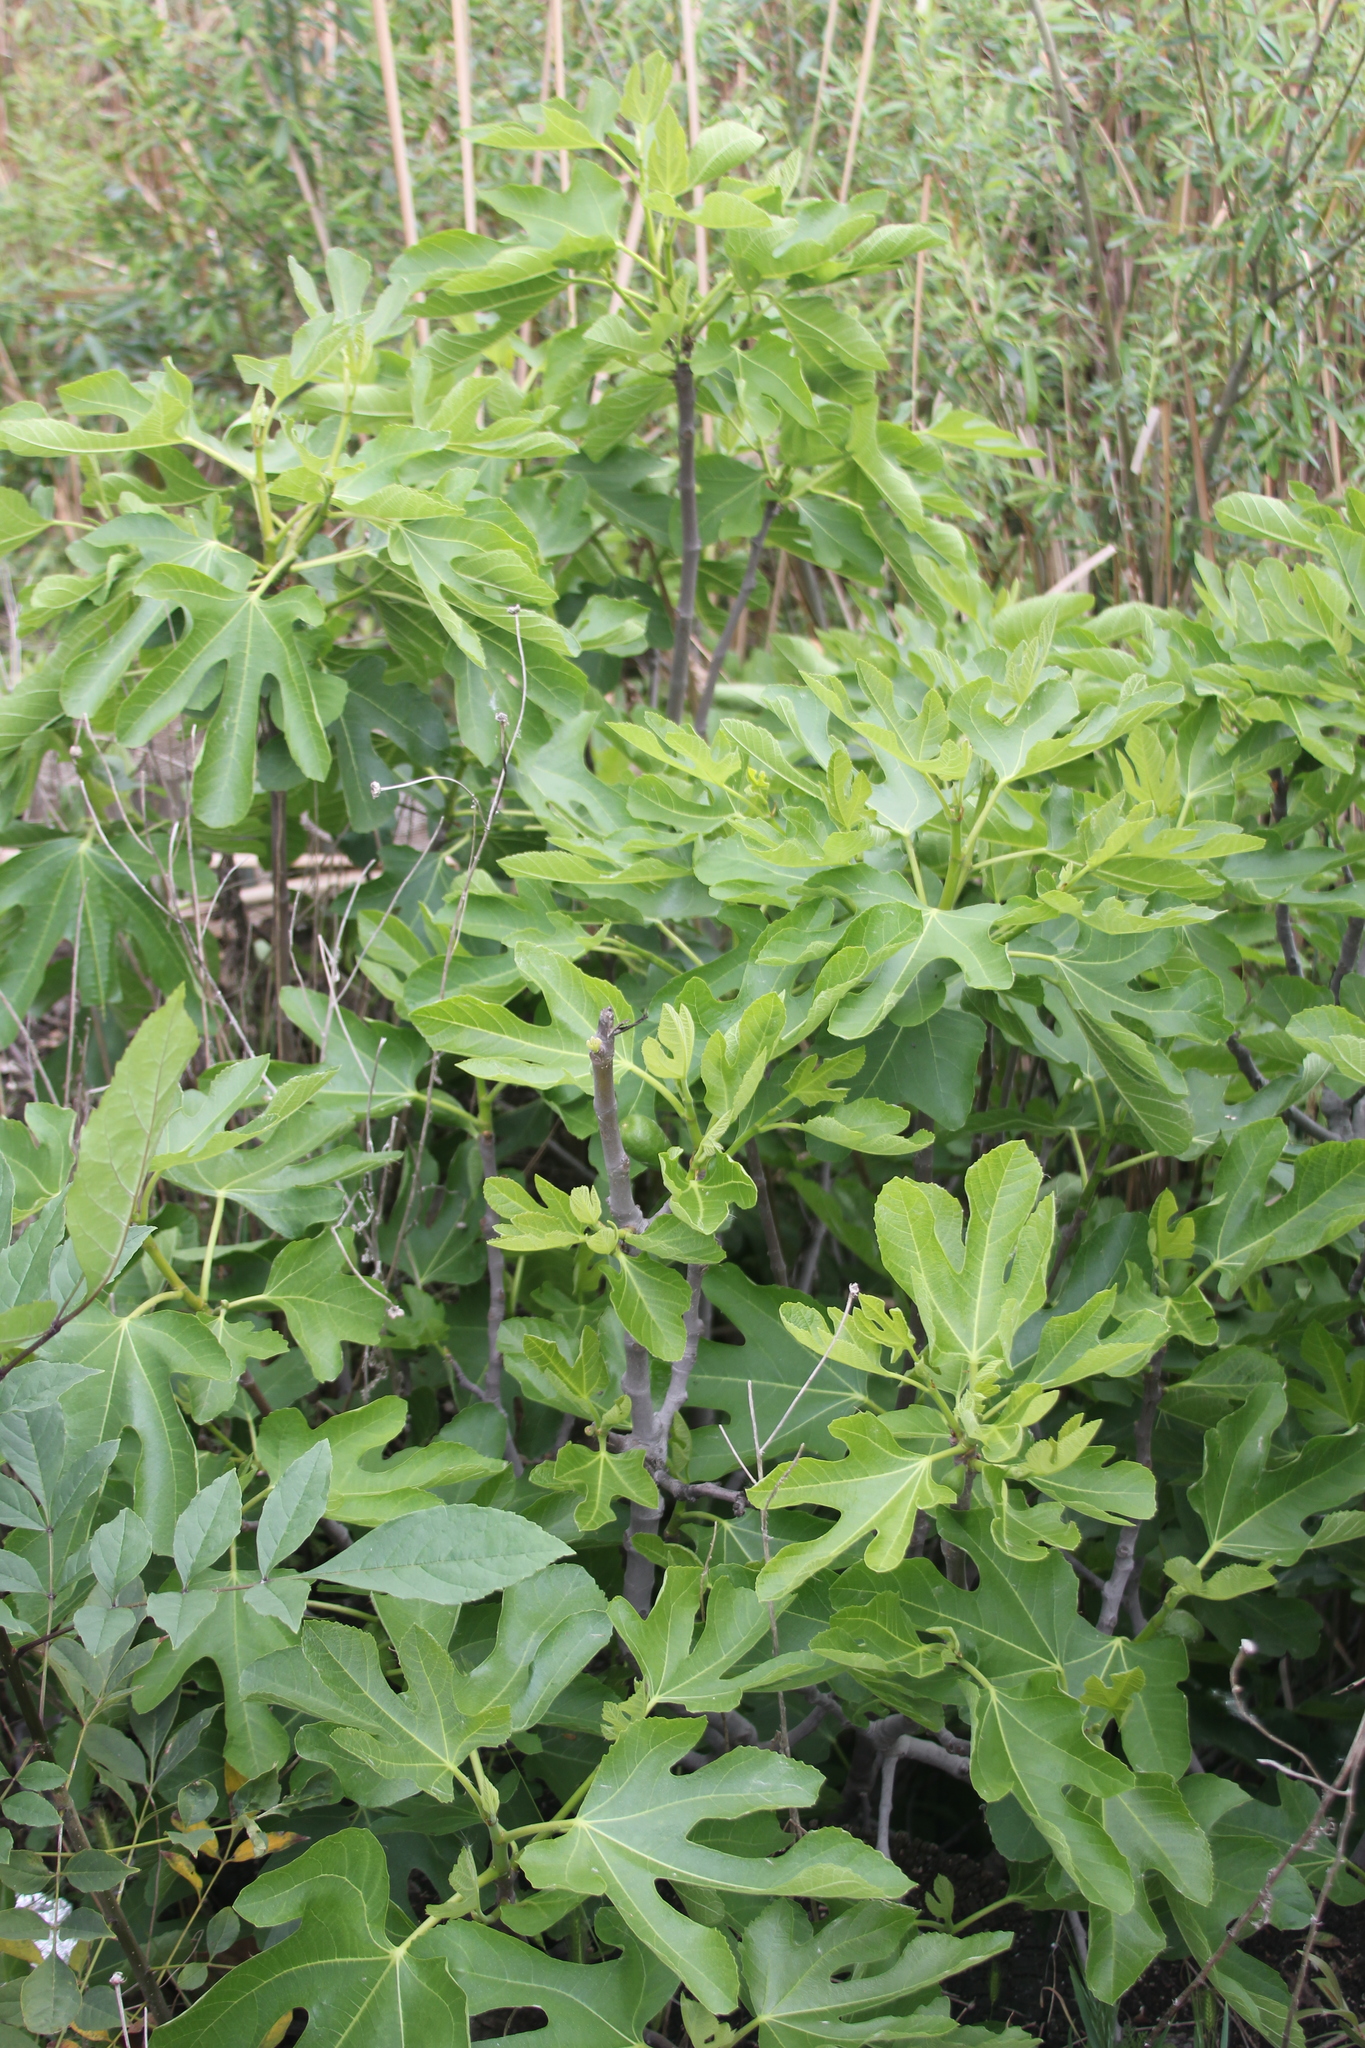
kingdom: Plantae
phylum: Tracheophyta
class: Magnoliopsida
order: Rosales
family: Moraceae
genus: Ficus
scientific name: Ficus carica
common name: Fig
